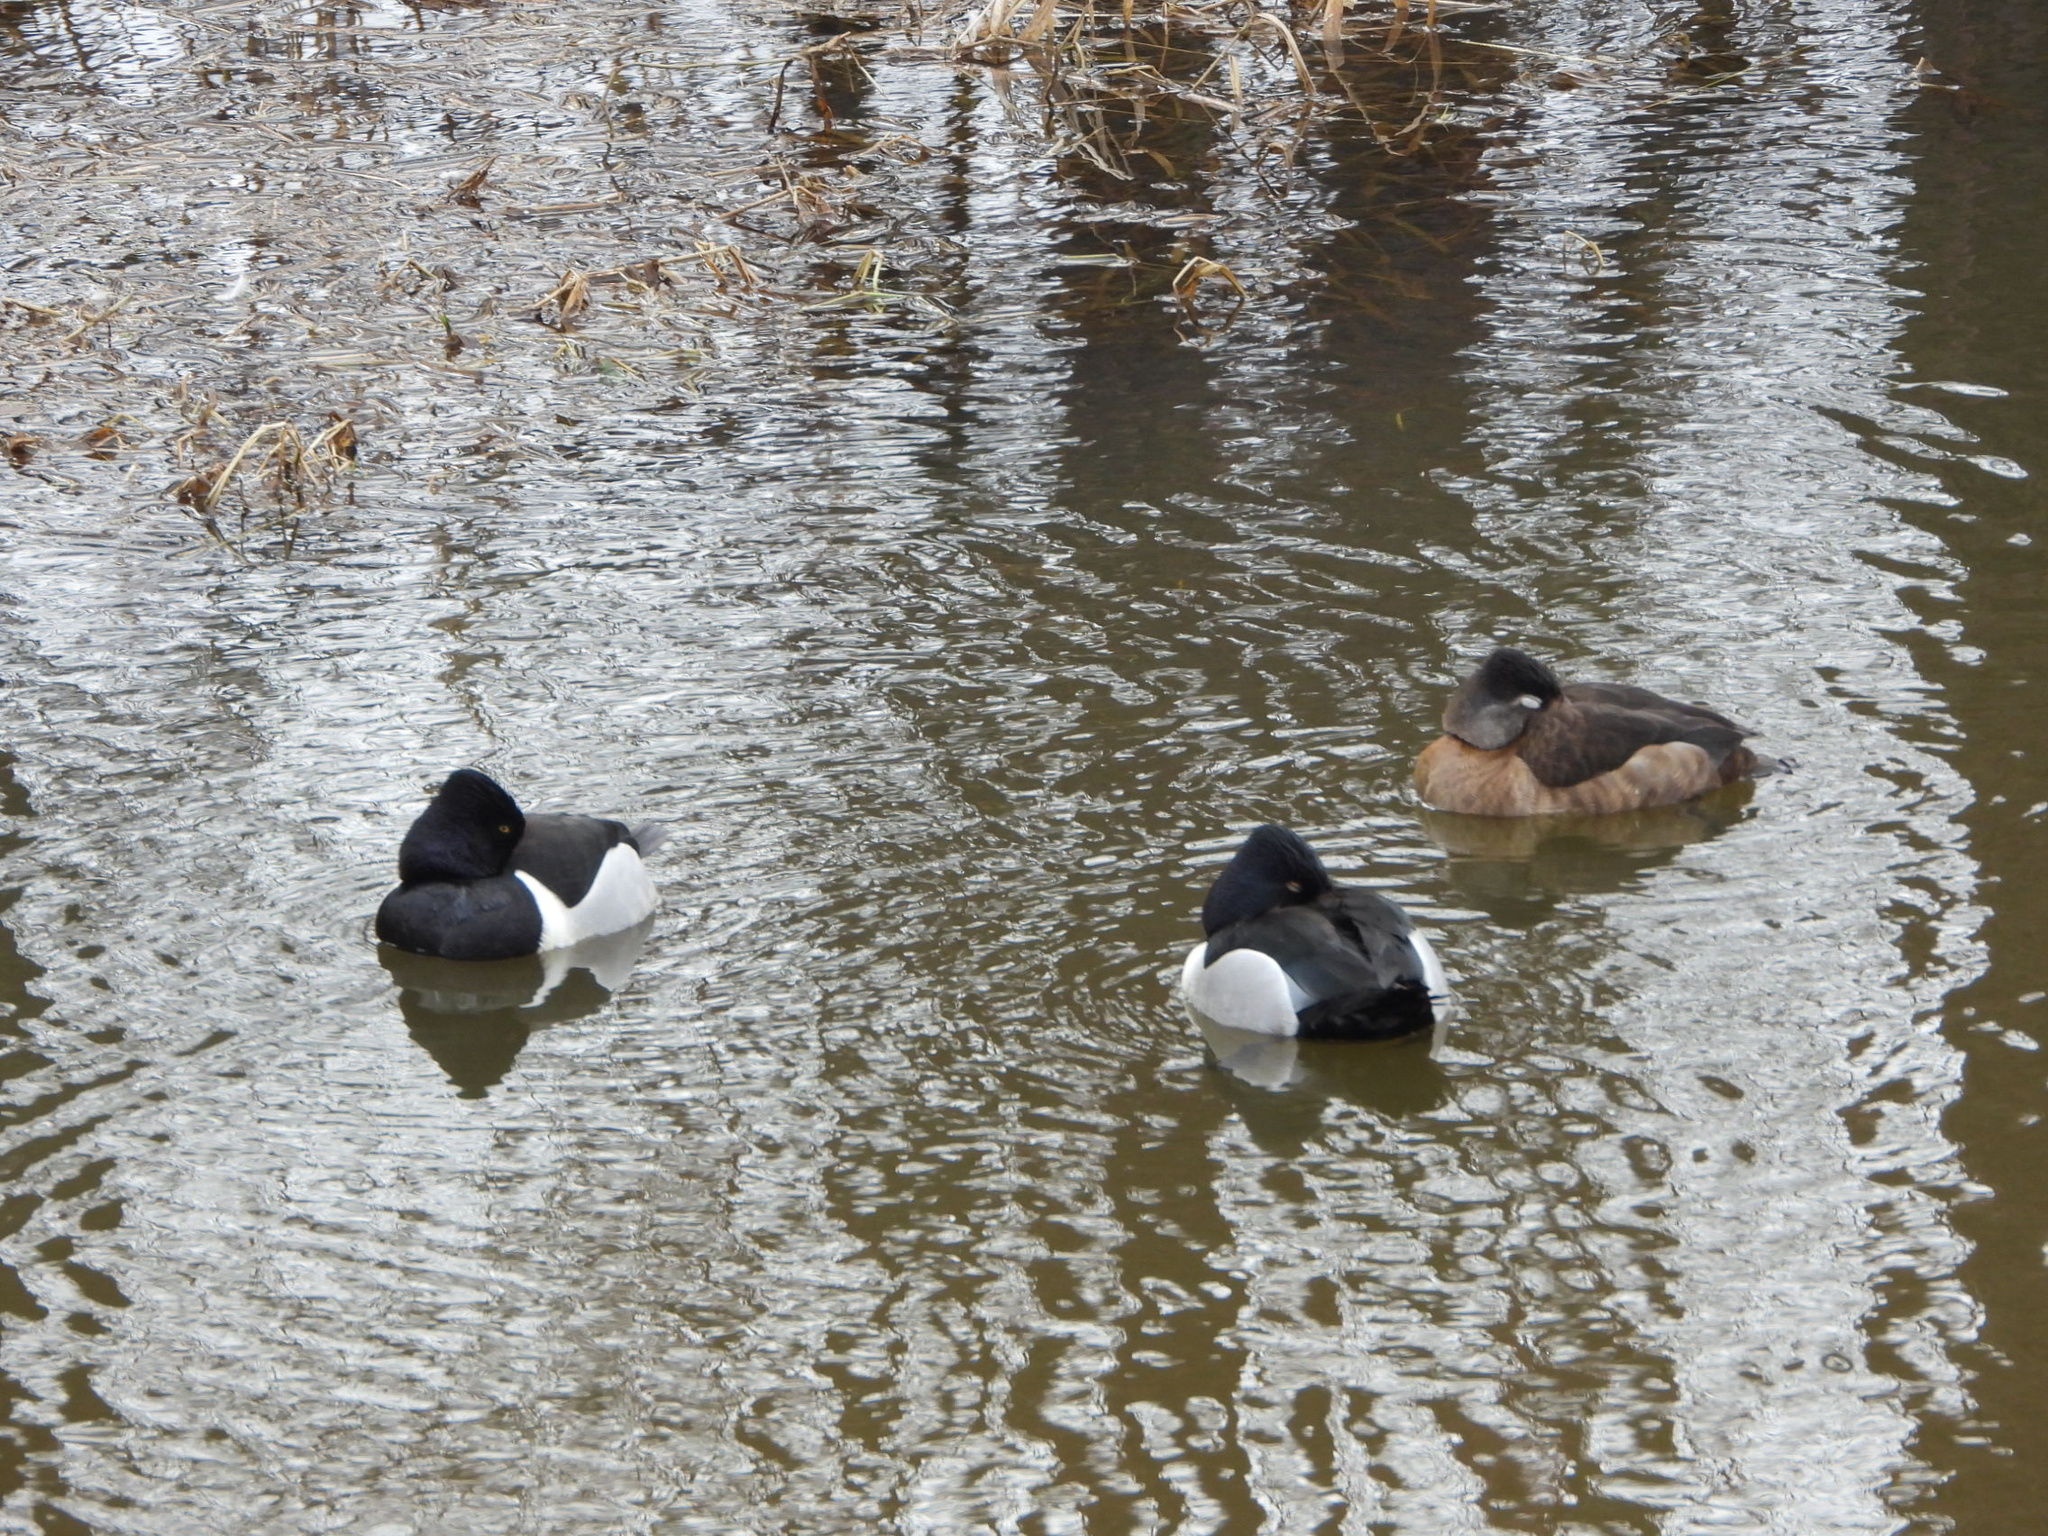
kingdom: Animalia
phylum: Chordata
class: Aves
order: Anseriformes
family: Anatidae
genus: Aythya
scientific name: Aythya collaris
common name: Ring-necked duck
